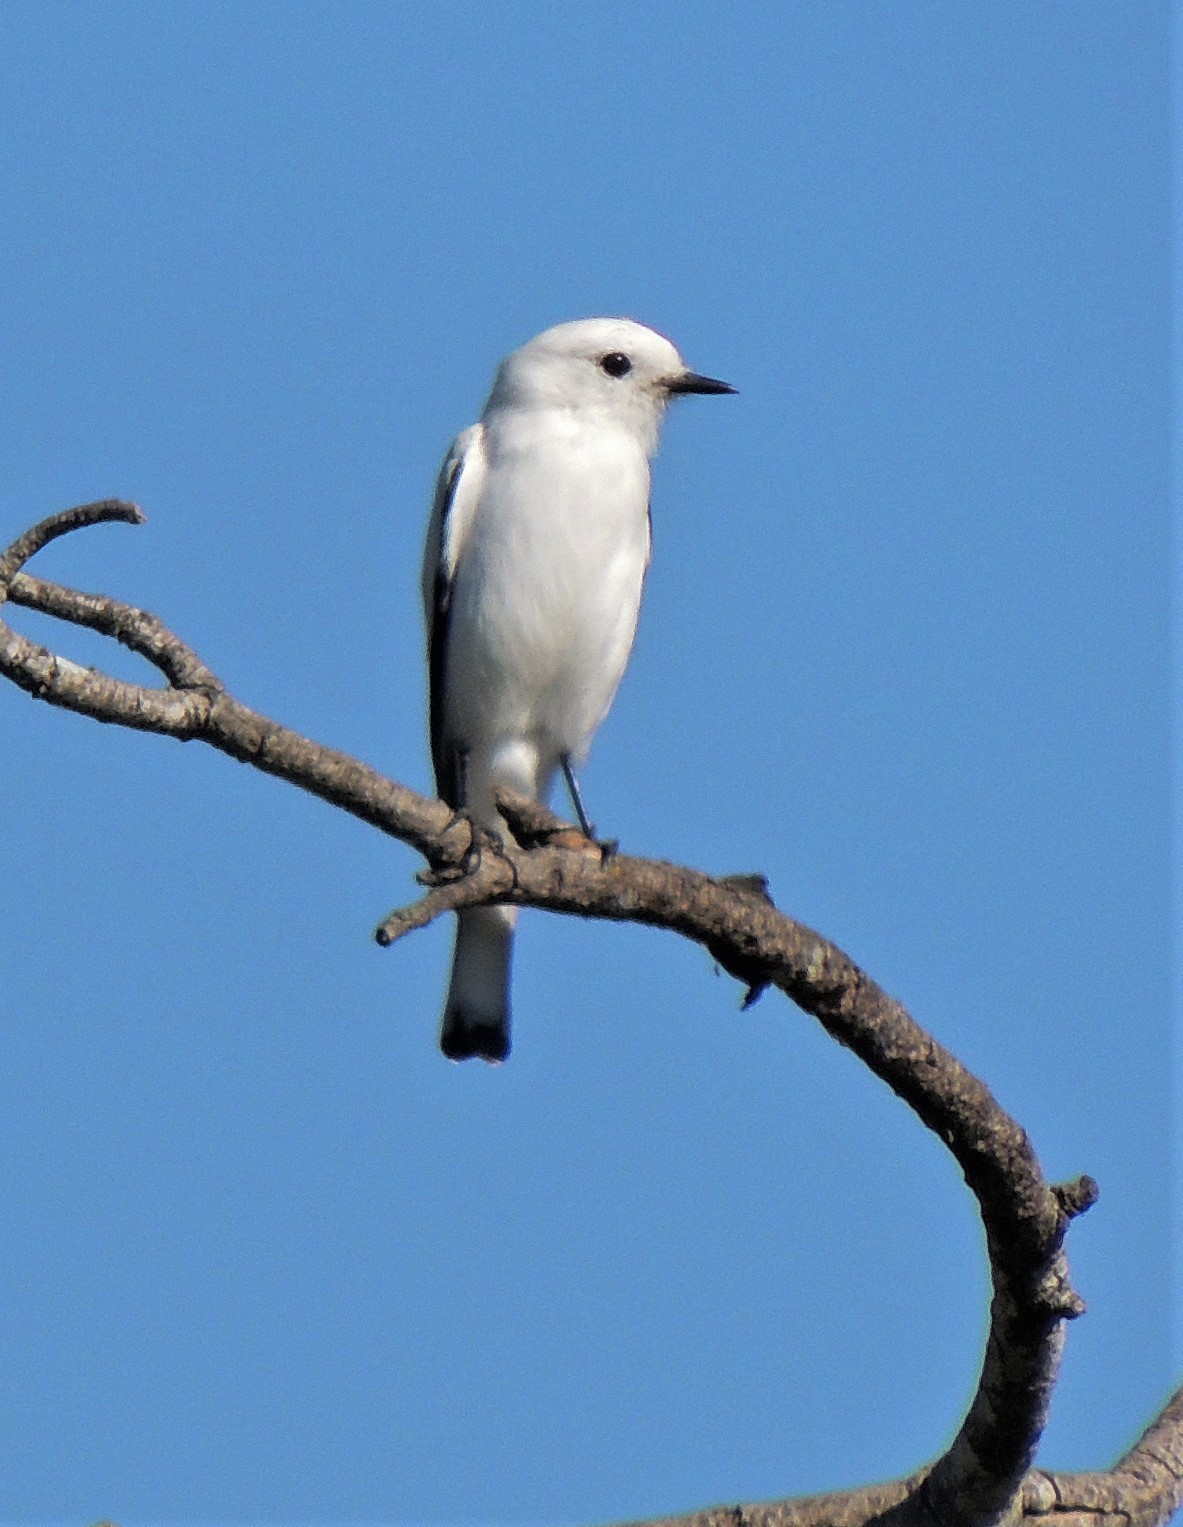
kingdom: Animalia
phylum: Chordata
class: Aves
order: Passeriformes
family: Tyrannidae
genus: Xolmis
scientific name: Xolmis irupero
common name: White monjita
